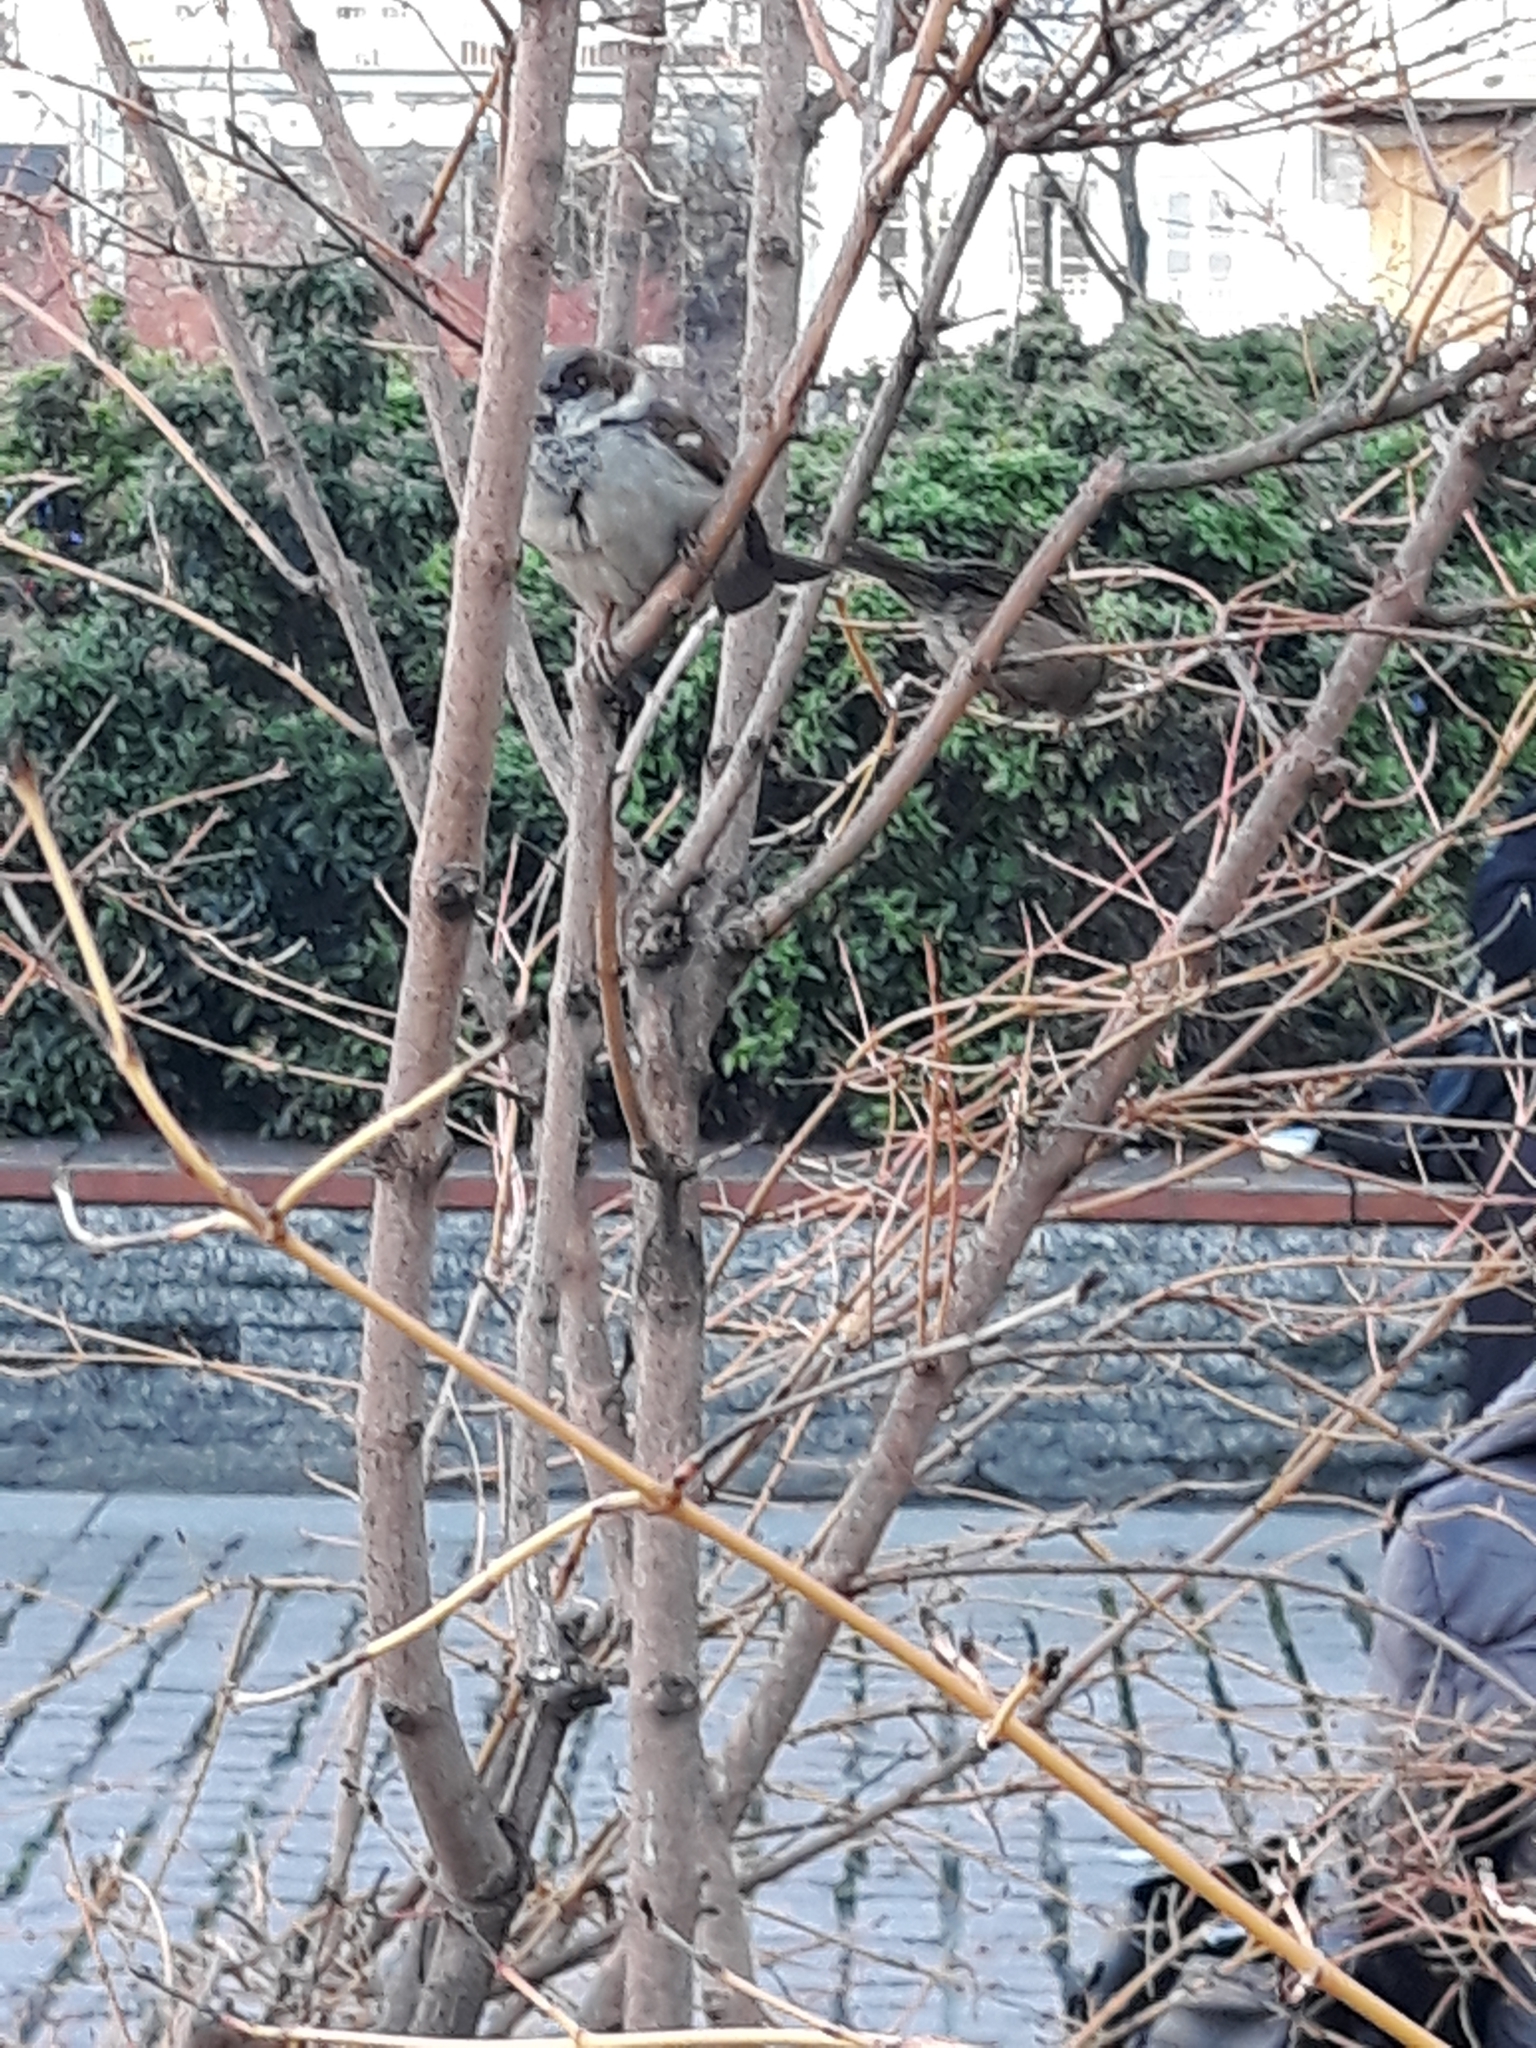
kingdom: Animalia
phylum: Chordata
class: Aves
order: Passeriformes
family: Passeridae
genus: Passer
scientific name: Passer domesticus
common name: House sparrow
